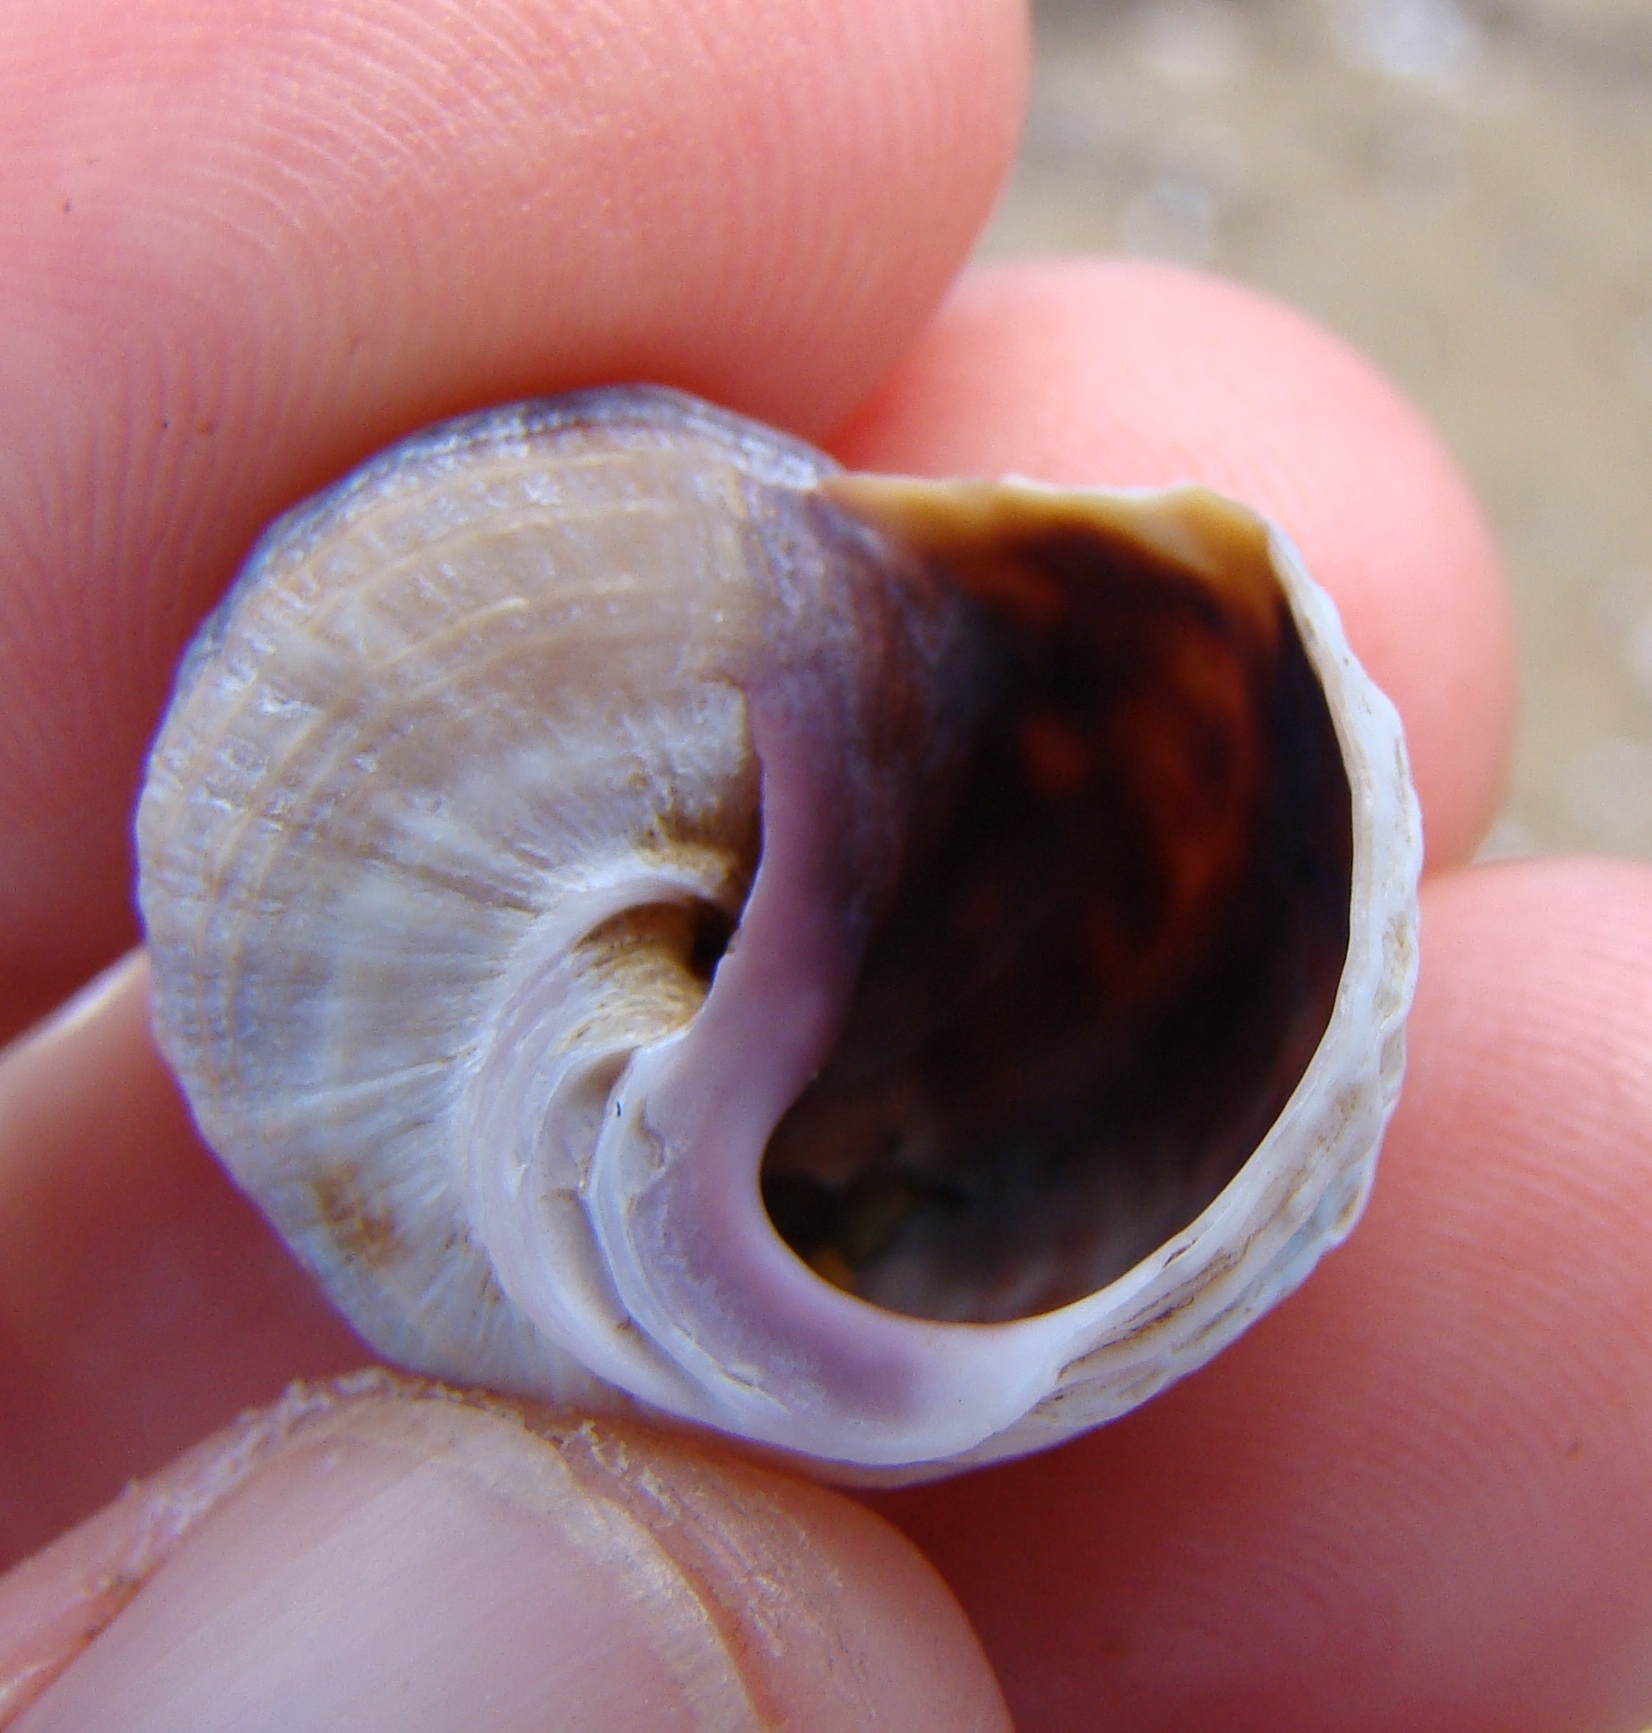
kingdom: Animalia
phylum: Mollusca
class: Gastropoda
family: Amphibolidae
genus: Amphibola
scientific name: Amphibola crenata
